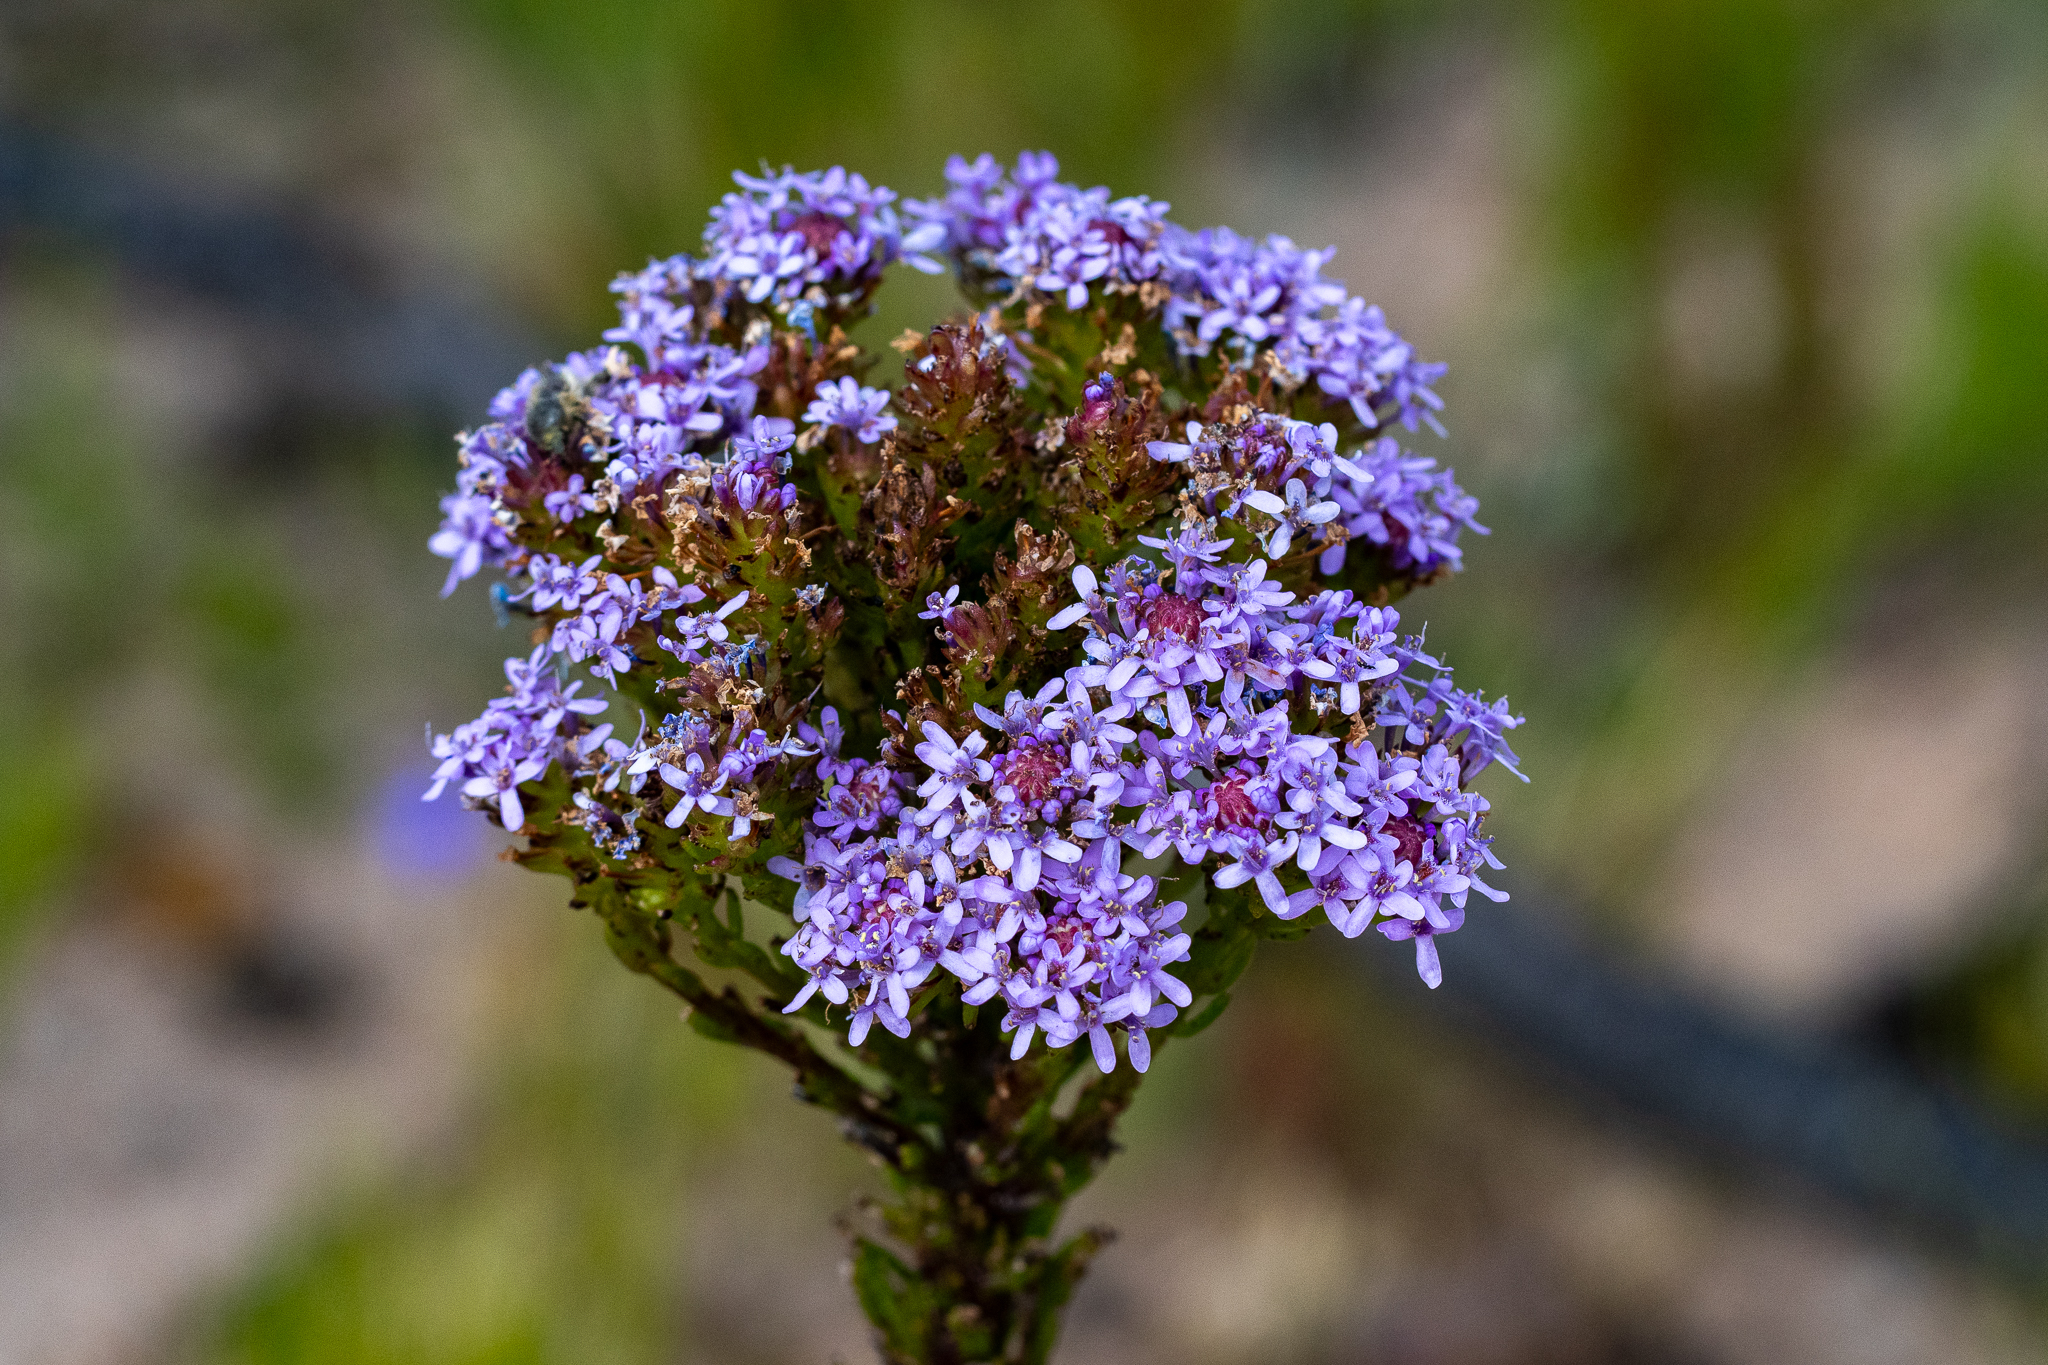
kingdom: Plantae
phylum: Tracheophyta
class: Magnoliopsida
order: Lamiales
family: Scrophulariaceae
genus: Pseudoselago
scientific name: Pseudoselago spuria
